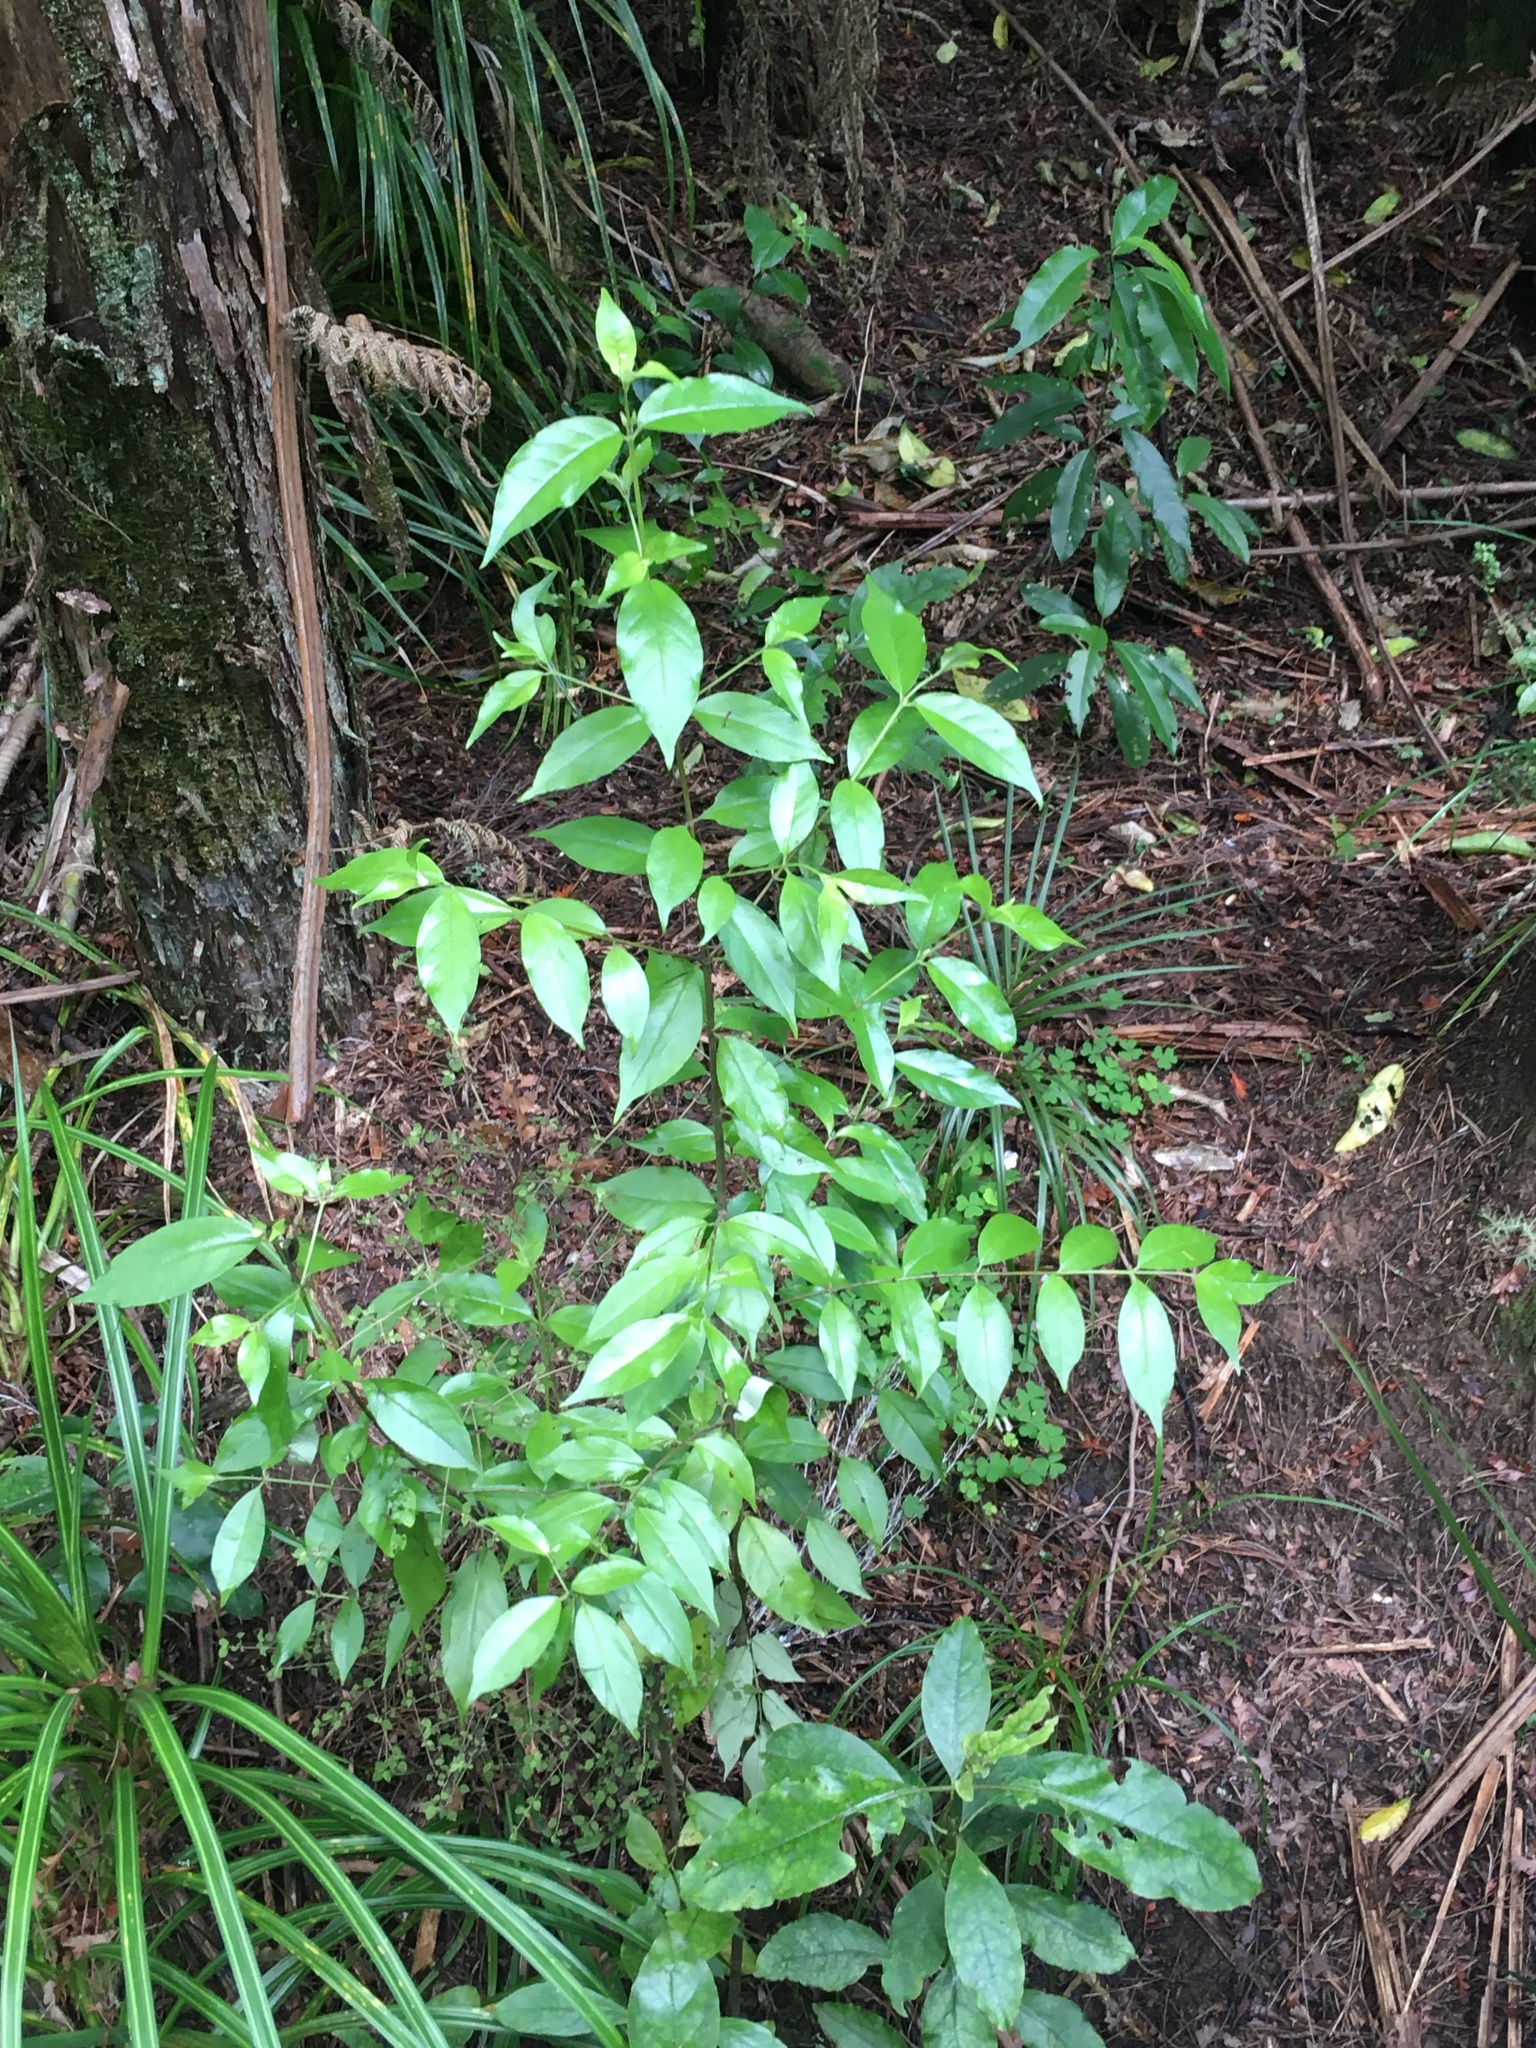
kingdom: Plantae
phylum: Tracheophyta
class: Magnoliopsida
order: Gentianales
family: Loganiaceae
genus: Geniostoma
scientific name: Geniostoma ligustrifolium
